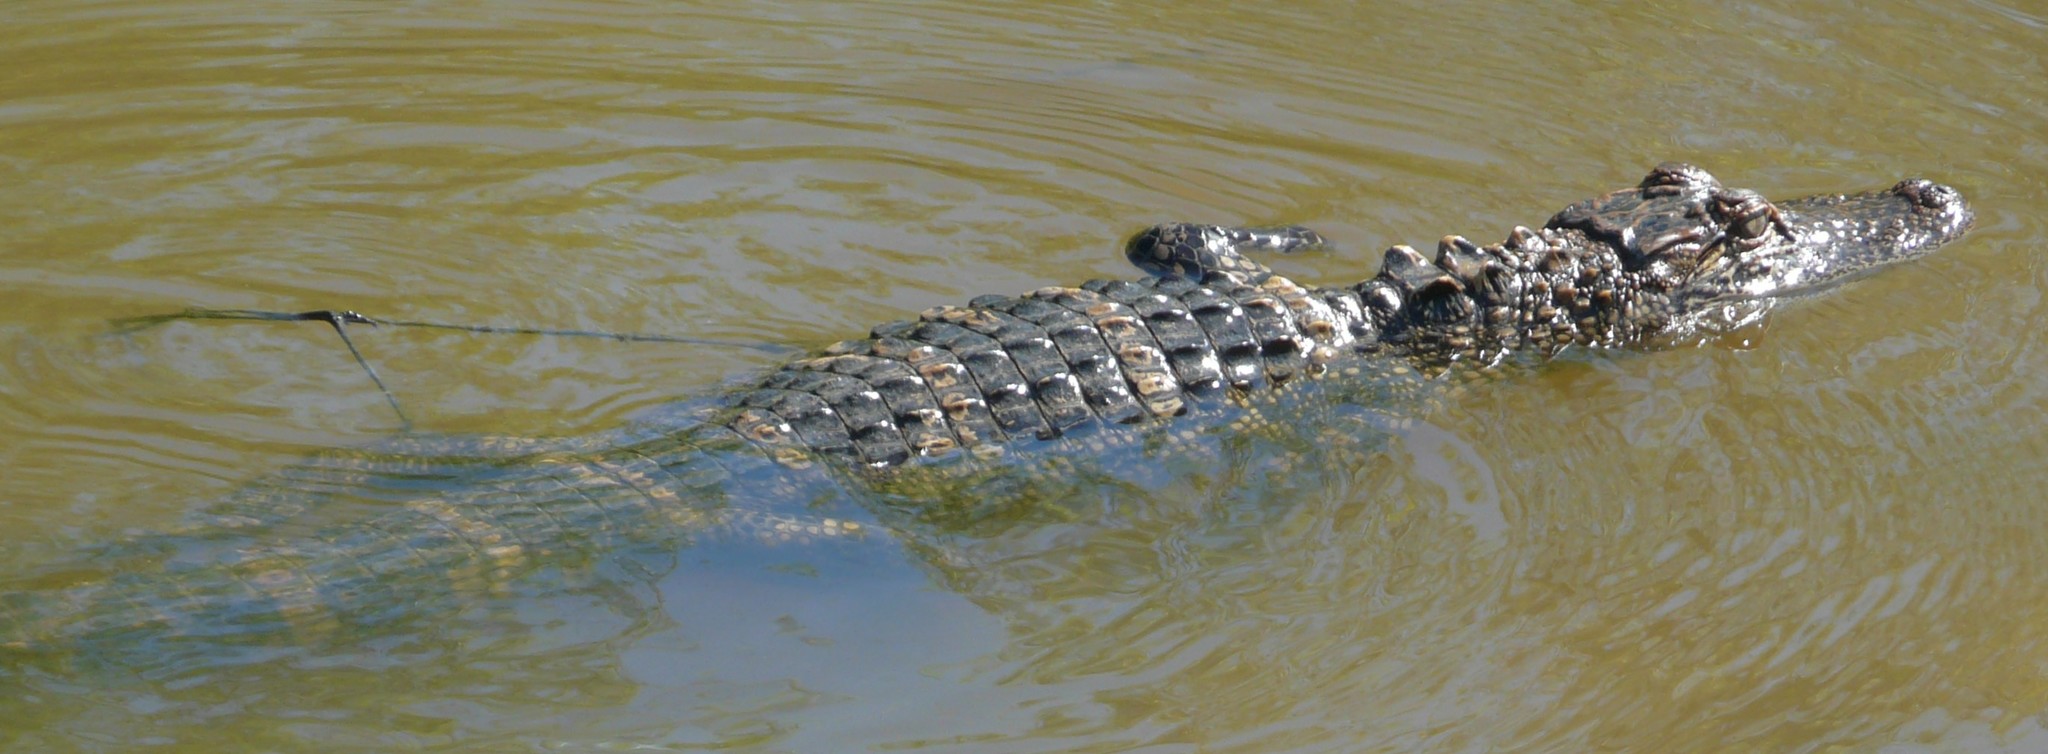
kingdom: Animalia
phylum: Chordata
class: Crocodylia
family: Alligatoridae
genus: Alligator
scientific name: Alligator mississippiensis
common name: American alligator
